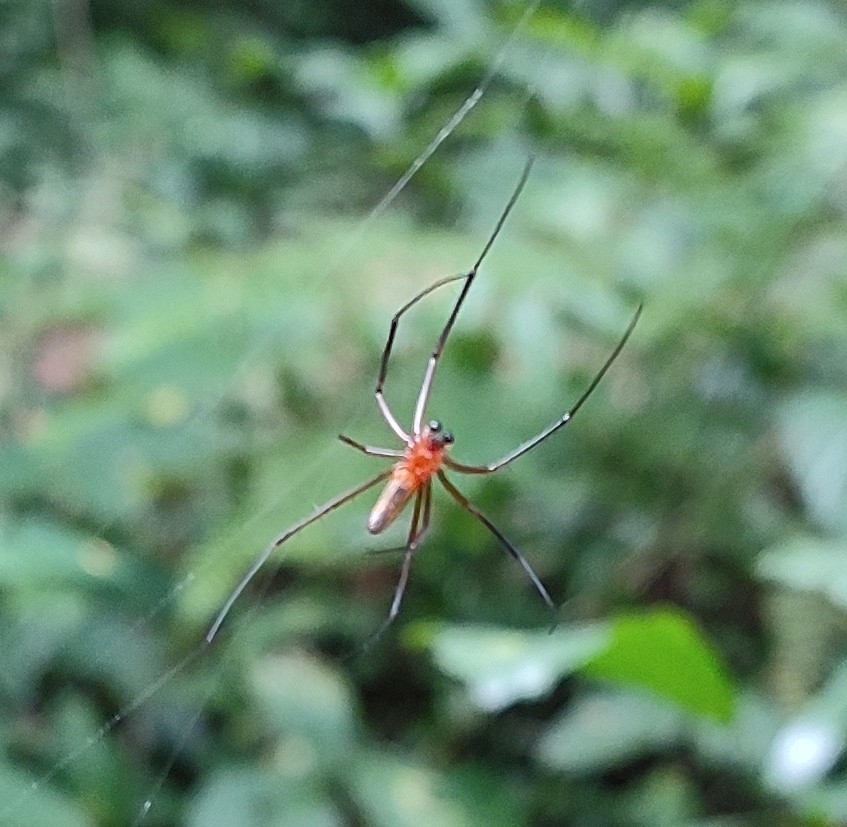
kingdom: Animalia
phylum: Arthropoda
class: Arachnida
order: Araneae
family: Araneidae
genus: Nephila
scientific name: Nephila pilipes
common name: Giant golden orb weaver
